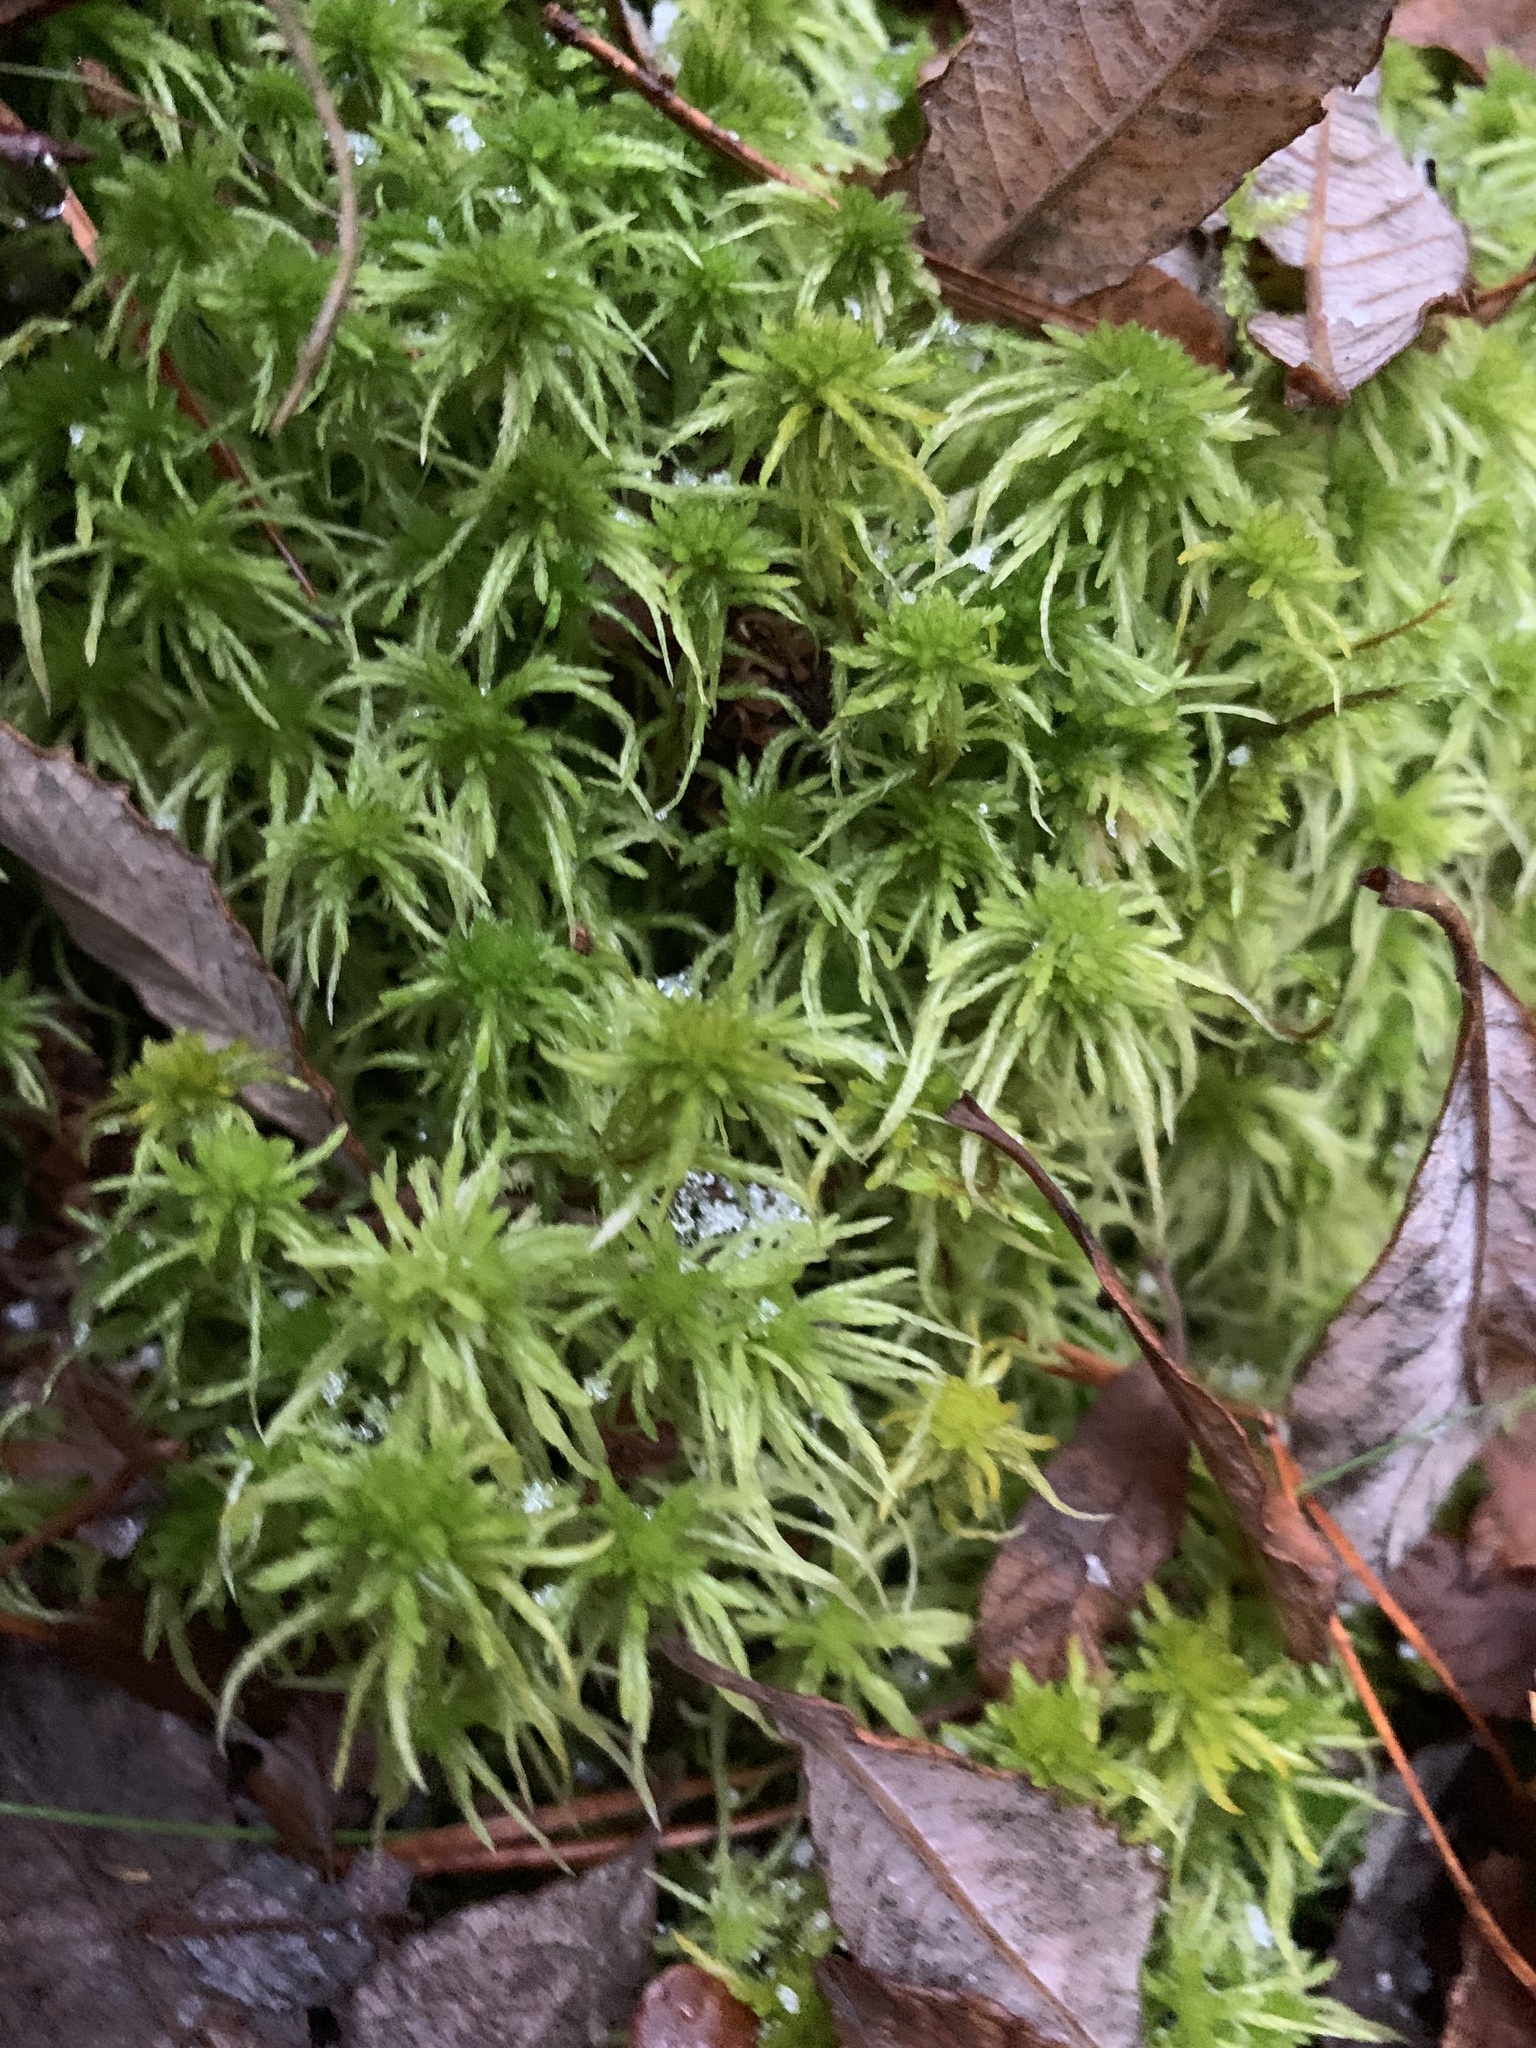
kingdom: Plantae
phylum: Bryophyta
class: Sphagnopsida
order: Sphagnales
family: Sphagnaceae
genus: Sphagnum
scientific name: Sphagnum fimbriatum
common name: Fringed peat moss
